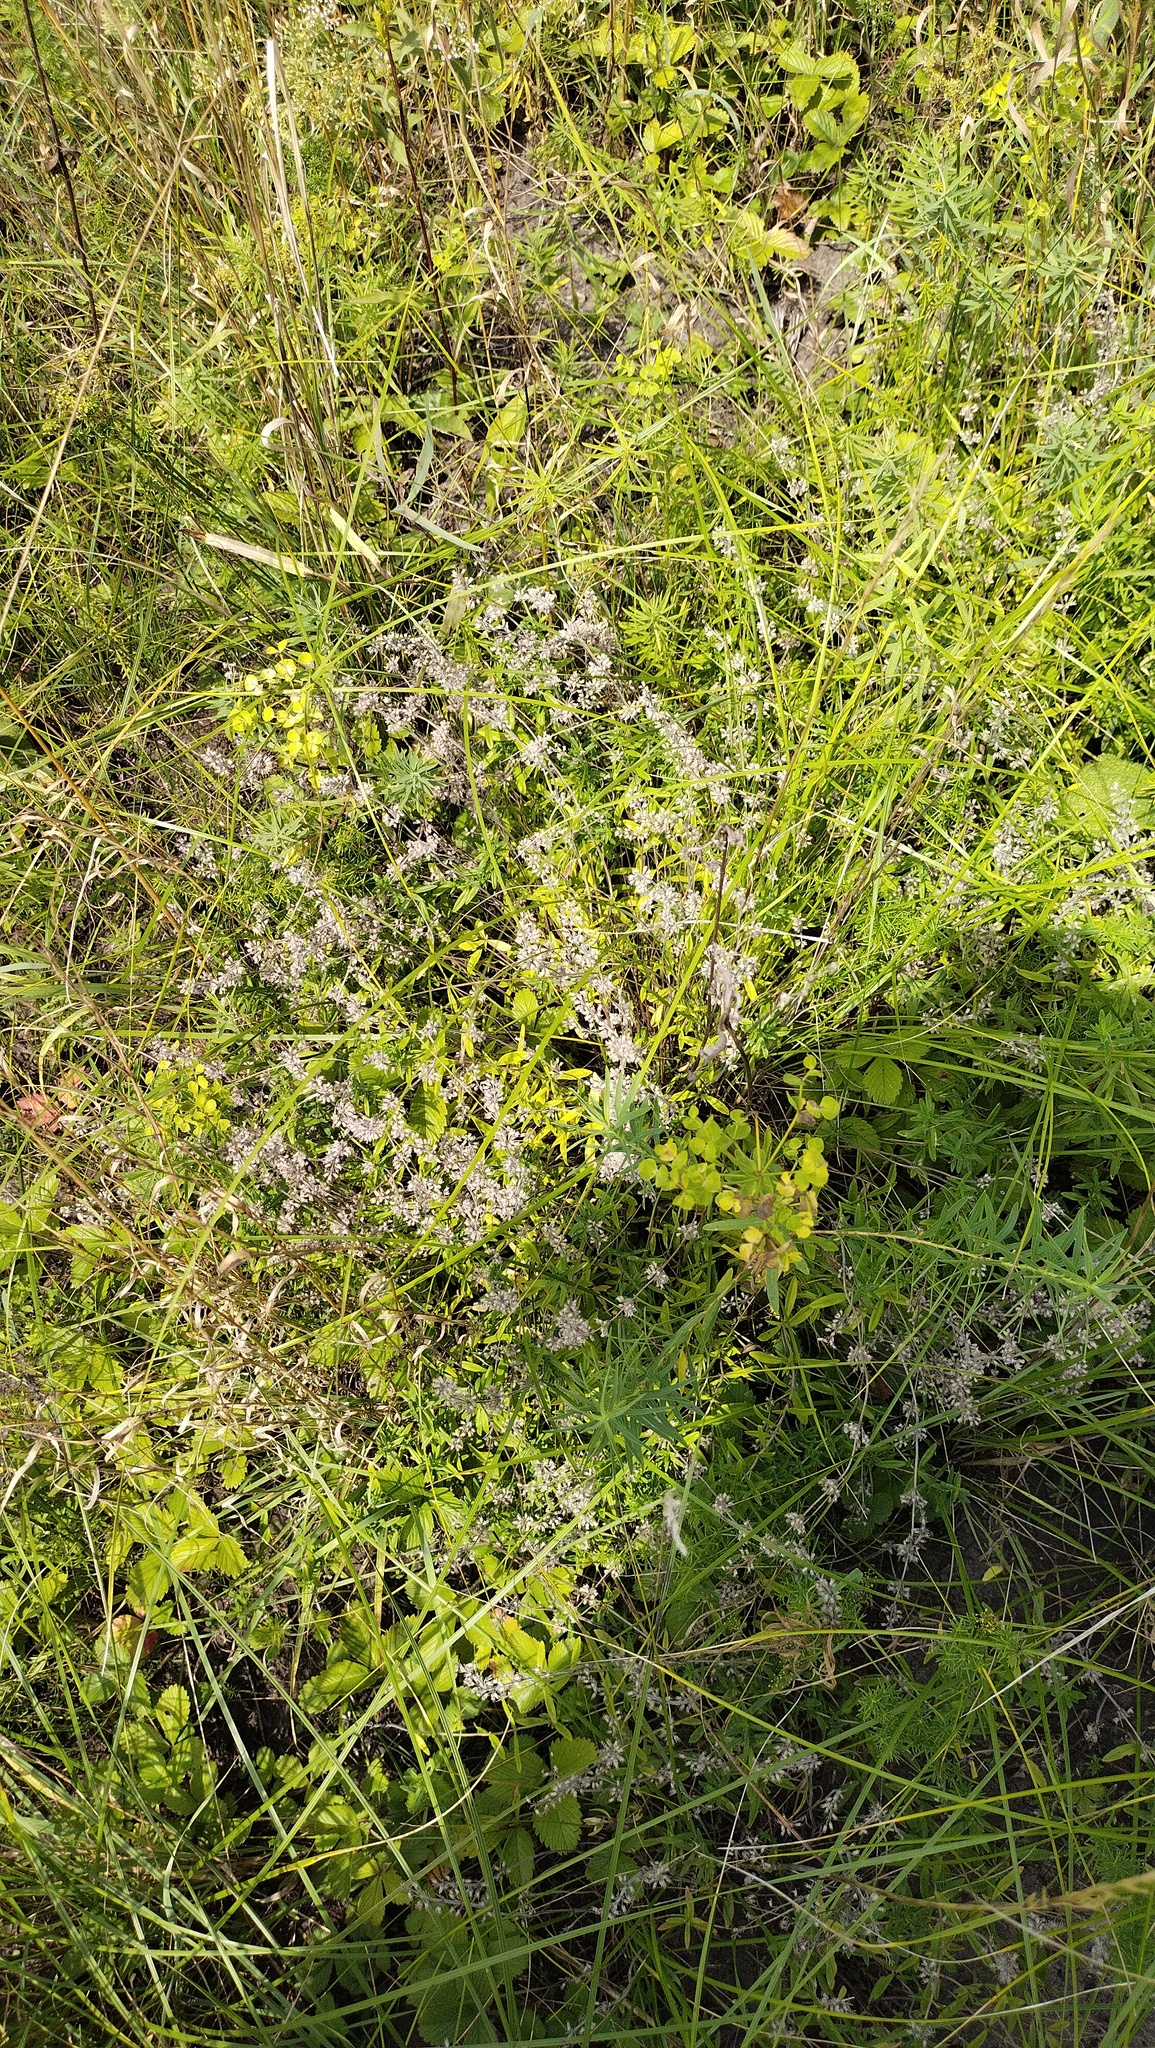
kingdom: Plantae
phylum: Tracheophyta
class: Magnoliopsida
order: Lamiales
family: Lamiaceae
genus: Thymus
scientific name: Thymus pannonicus
